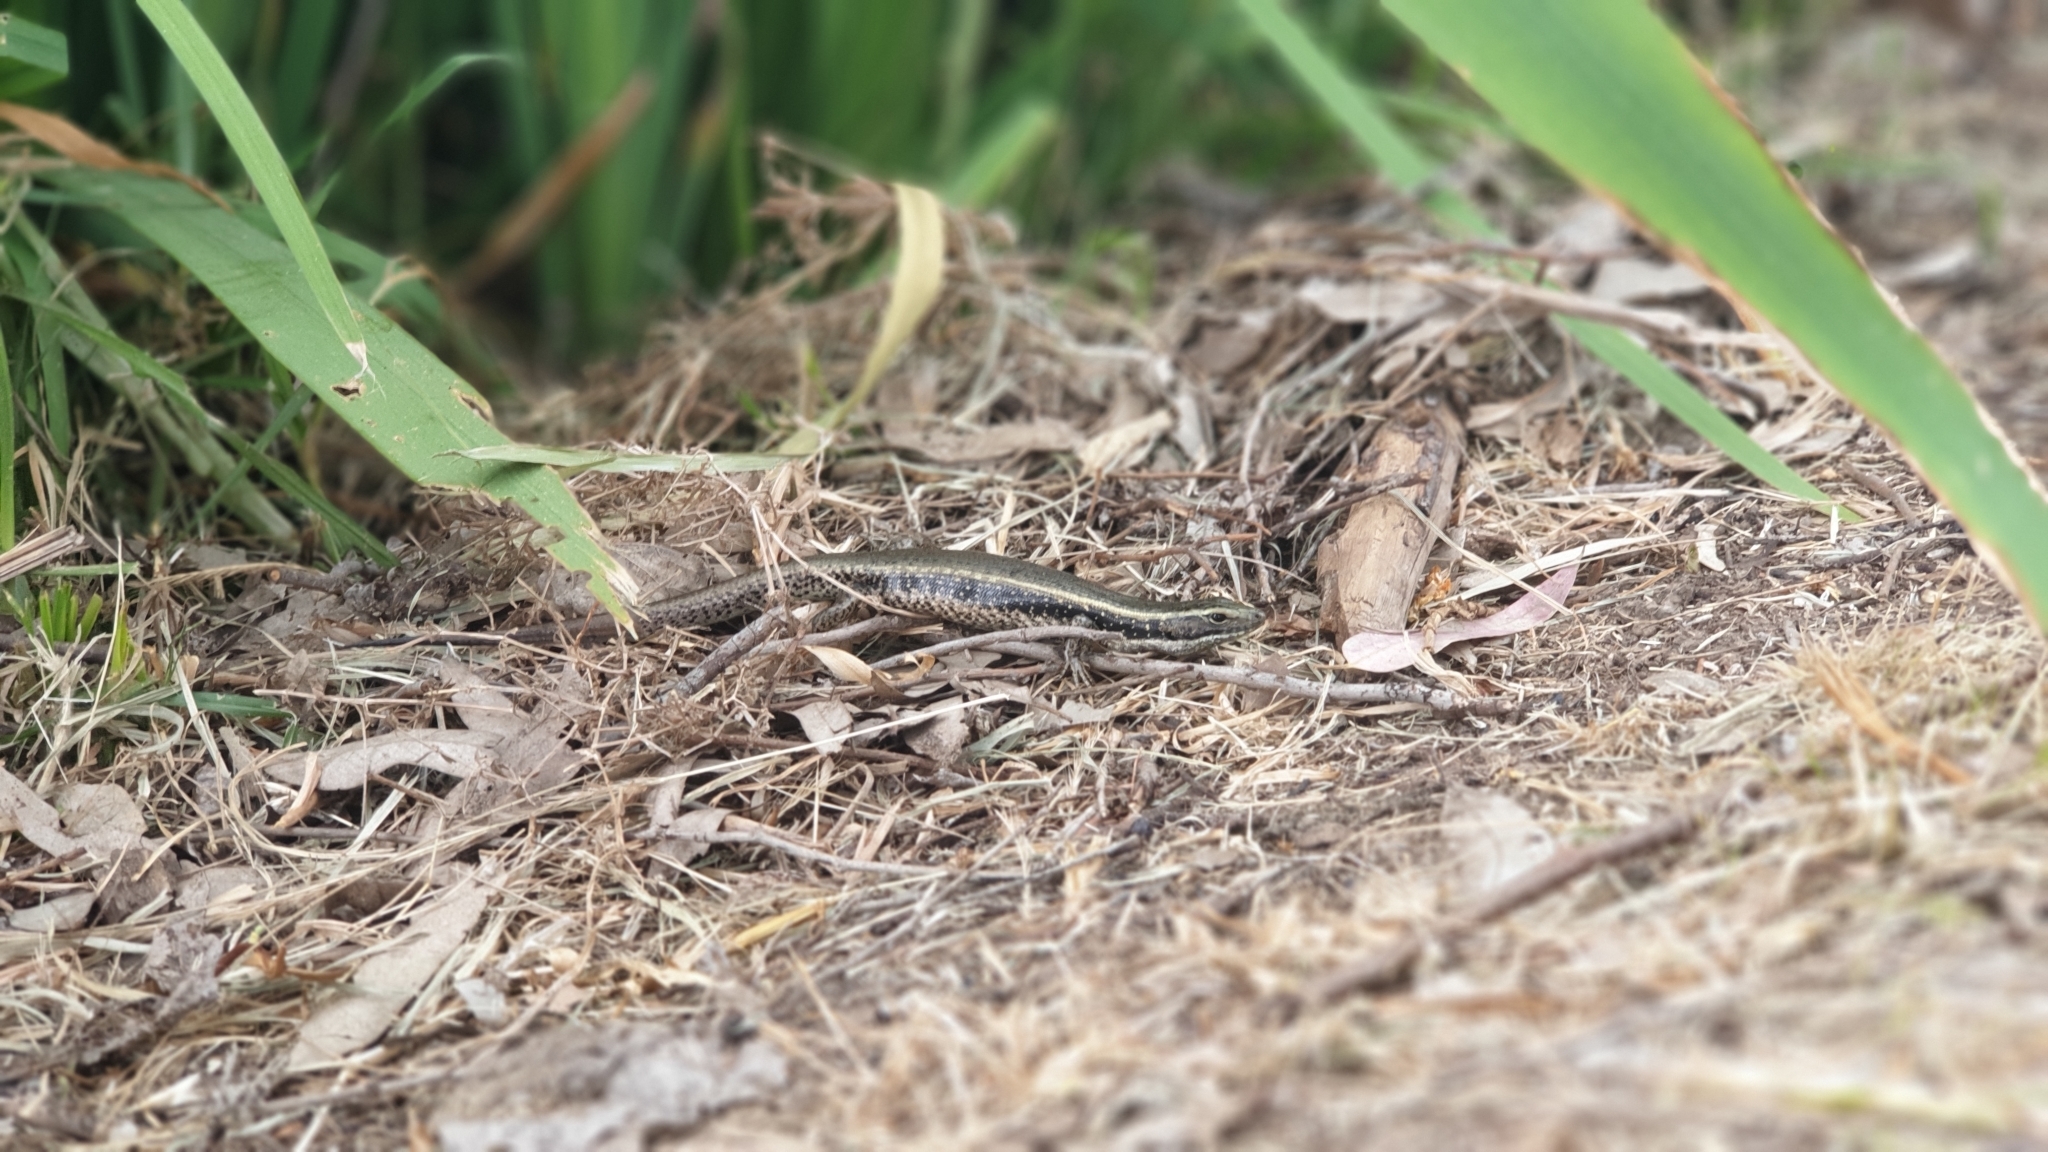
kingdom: Animalia
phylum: Chordata
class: Squamata
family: Scincidae
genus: Eulamprus
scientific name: Eulamprus quoyii
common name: Eastern water skink
